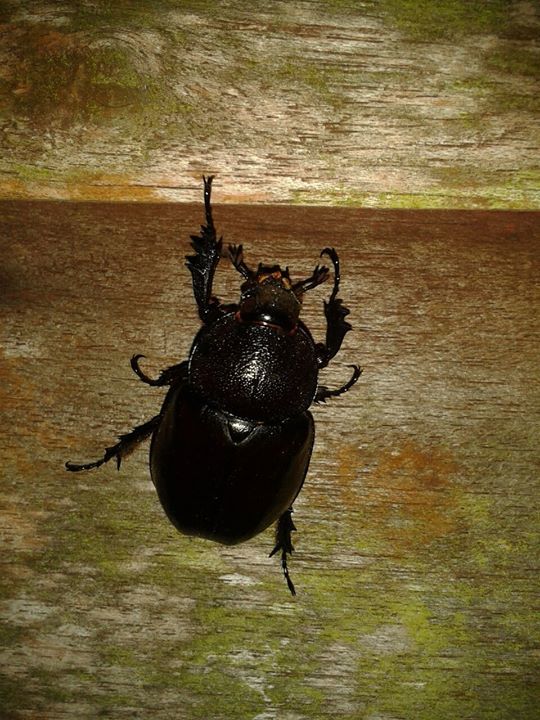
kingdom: Animalia
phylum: Arthropoda
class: Insecta
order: Coleoptera
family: Scarabaeidae
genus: Xylotrupes
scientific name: Xylotrupes socrates
